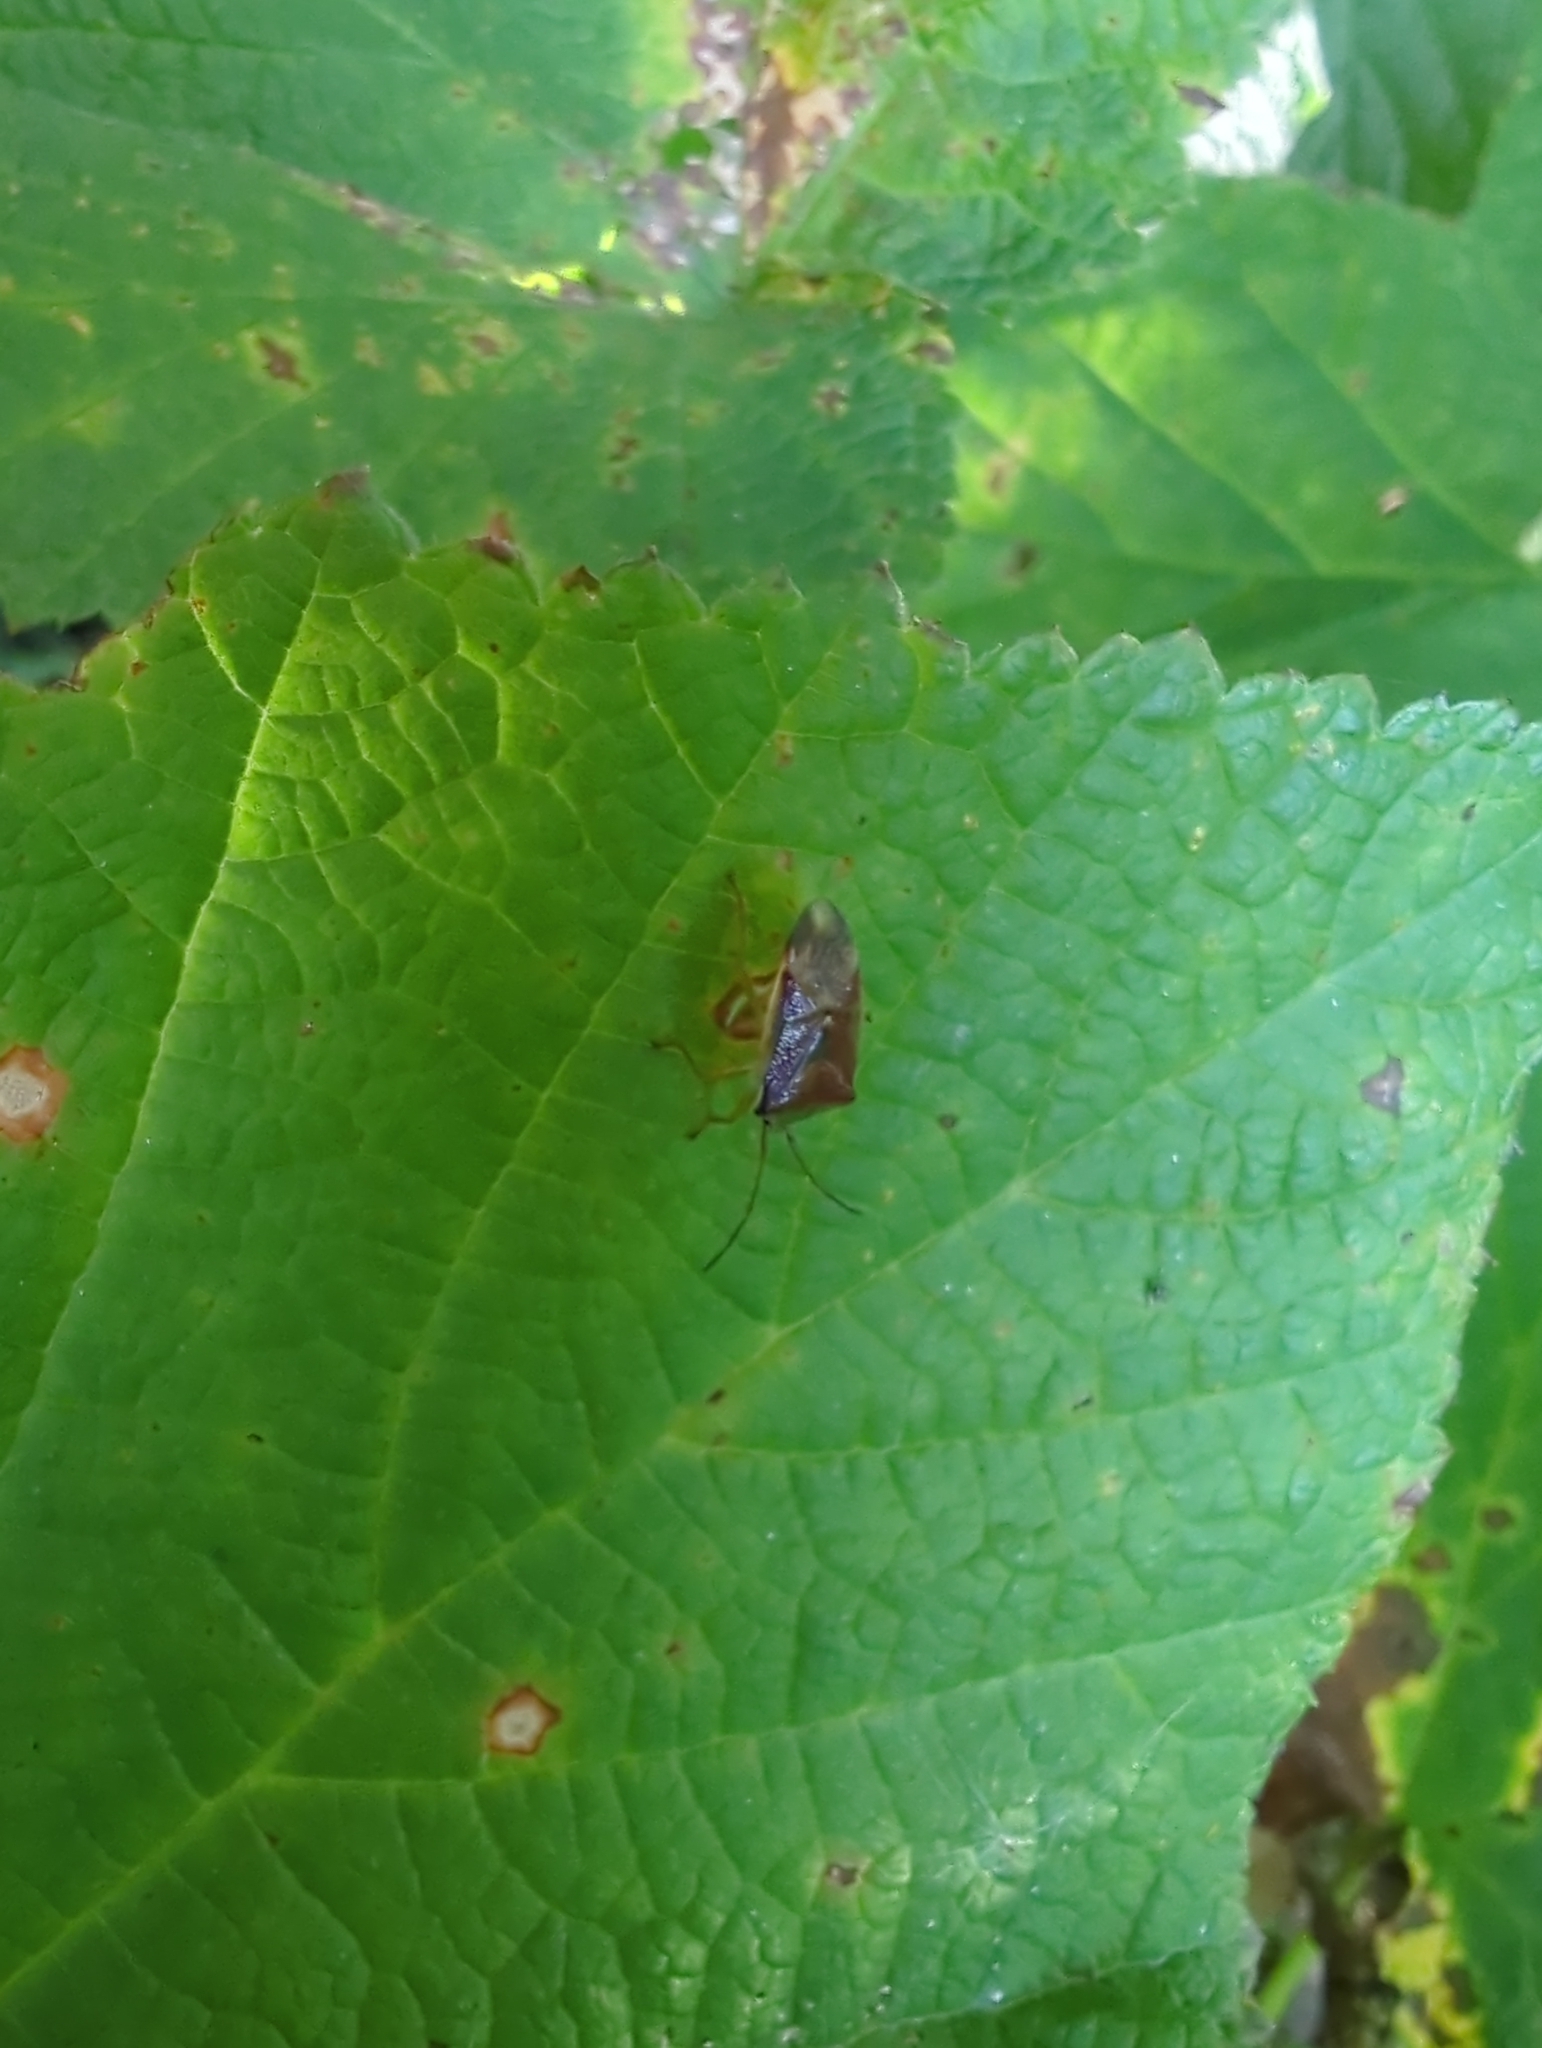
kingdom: Animalia
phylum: Arthropoda
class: Insecta
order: Hemiptera
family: Acanthosomatidae
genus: Elasmostethus
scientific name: Elasmostethus interstinctus
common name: Birch shieldbug
